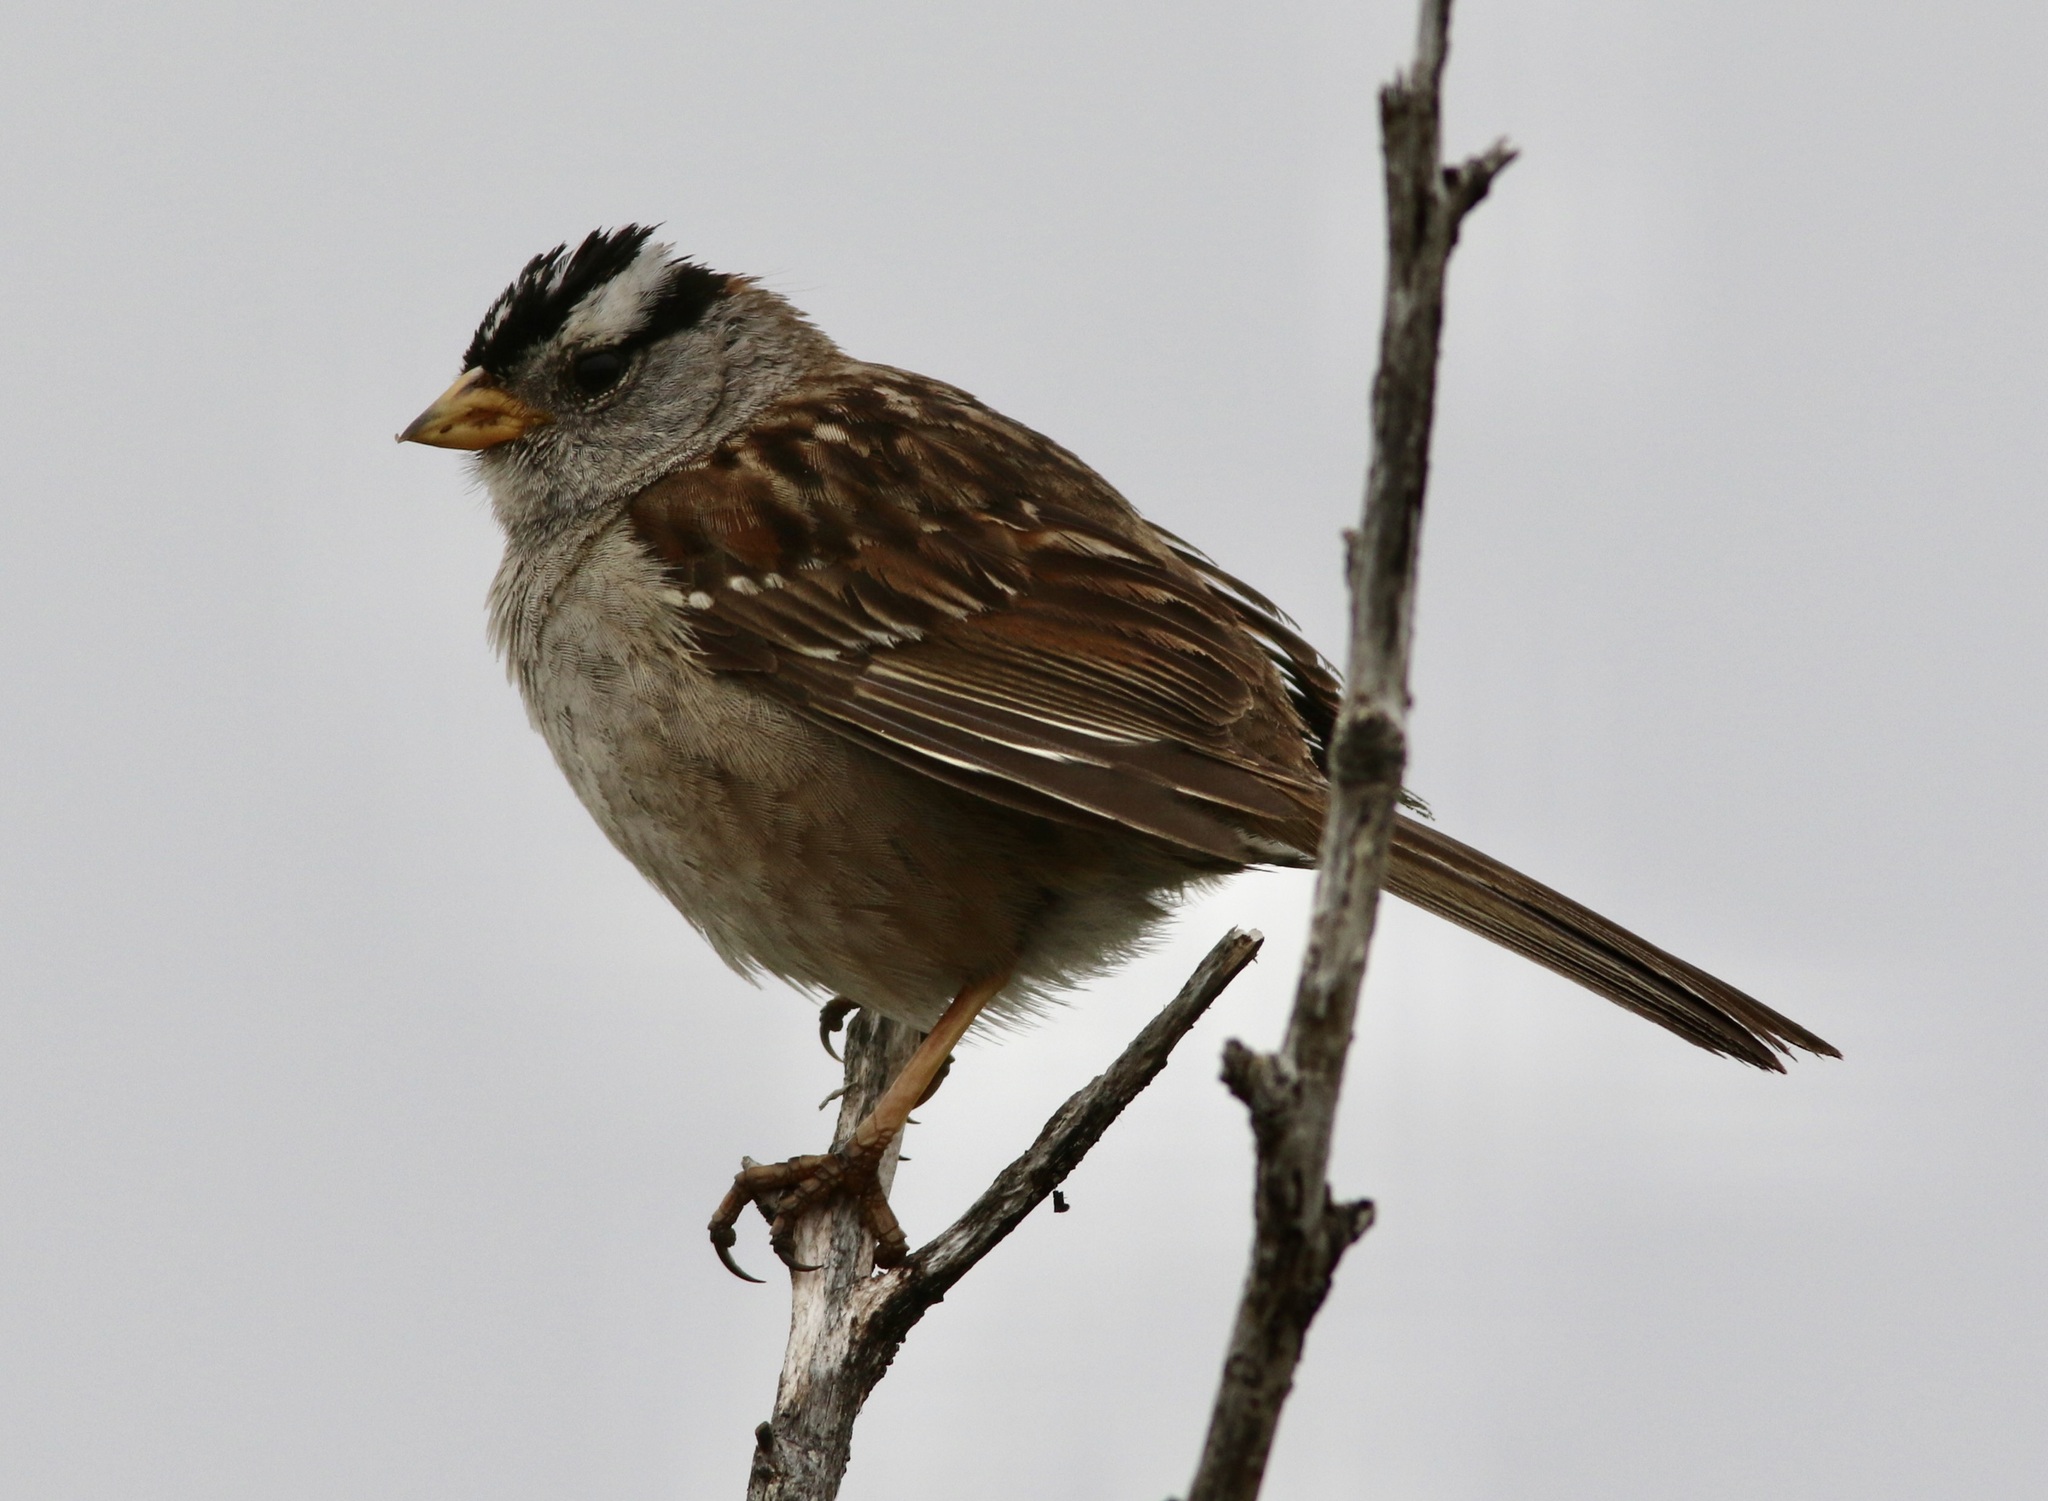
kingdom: Animalia
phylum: Chordata
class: Aves
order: Passeriformes
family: Passerellidae
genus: Zonotrichia
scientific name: Zonotrichia leucophrys
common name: White-crowned sparrow
